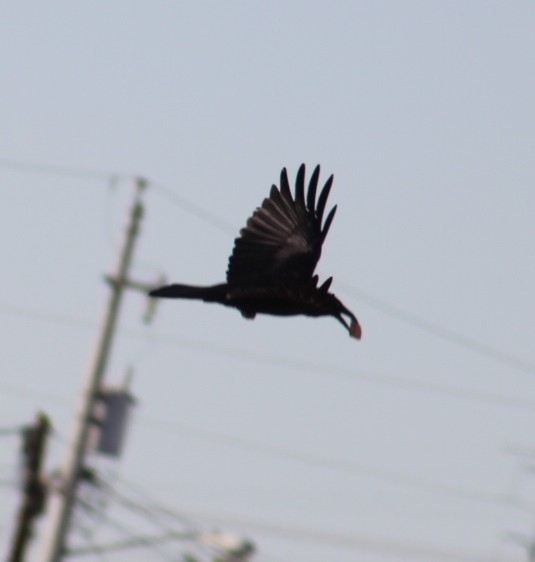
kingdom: Animalia
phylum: Chordata
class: Aves
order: Passeriformes
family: Corvidae
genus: Corvus
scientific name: Corvus corax
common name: Common raven
